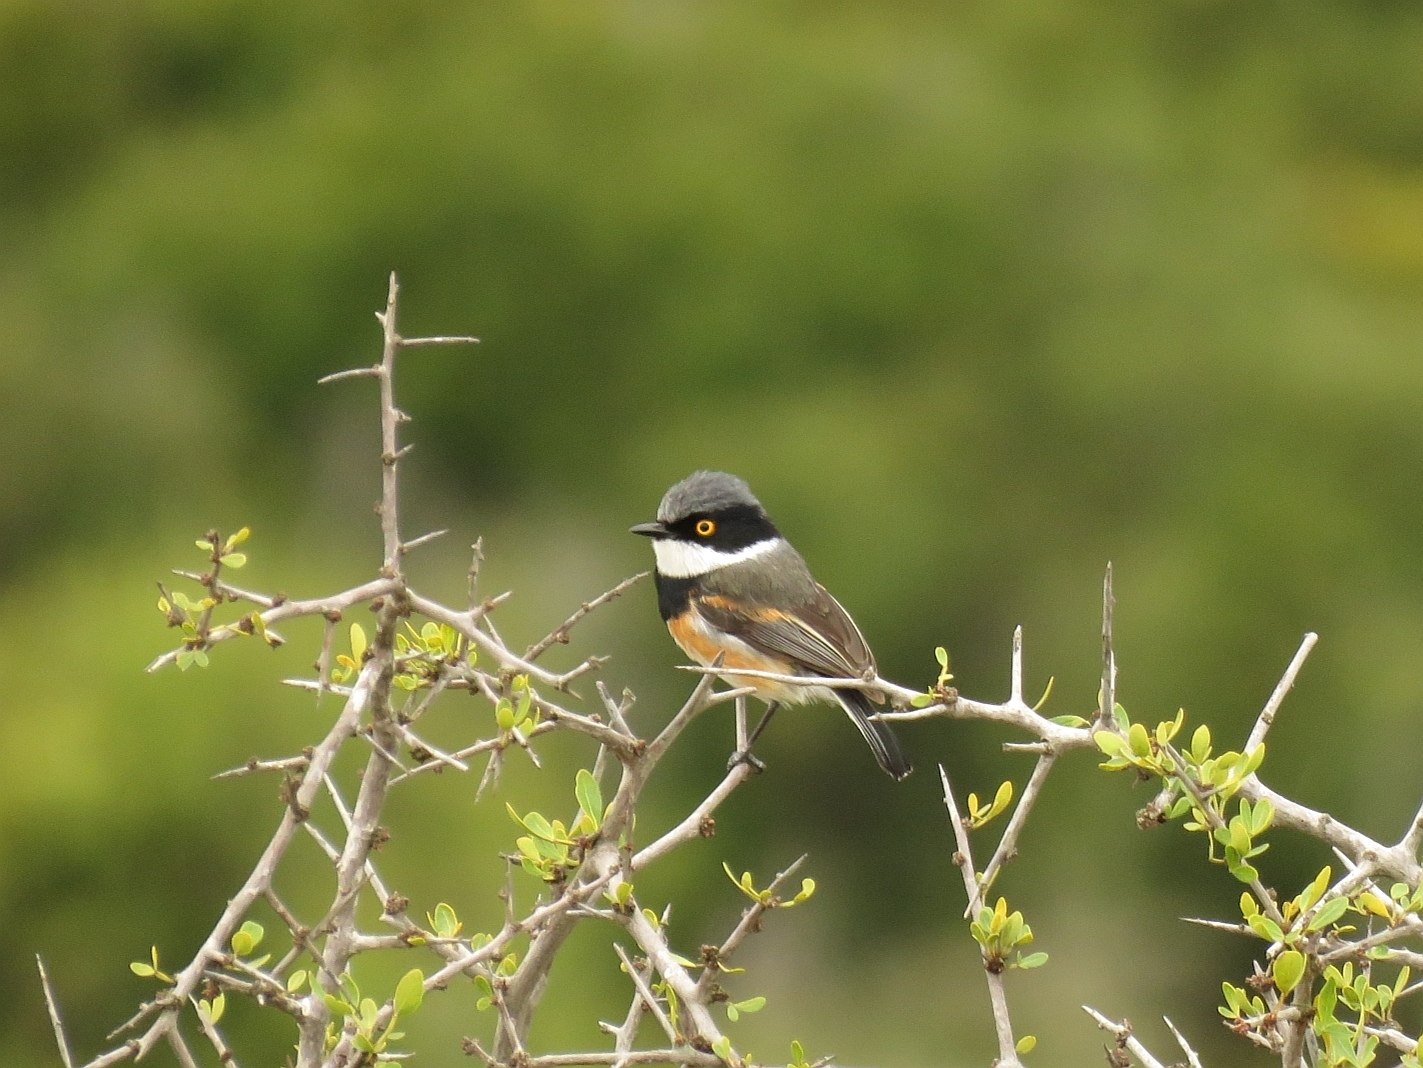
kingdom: Animalia
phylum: Chordata
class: Aves
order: Passeriformes
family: Platysteiridae
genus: Batis
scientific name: Batis capensis
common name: Cape batis
